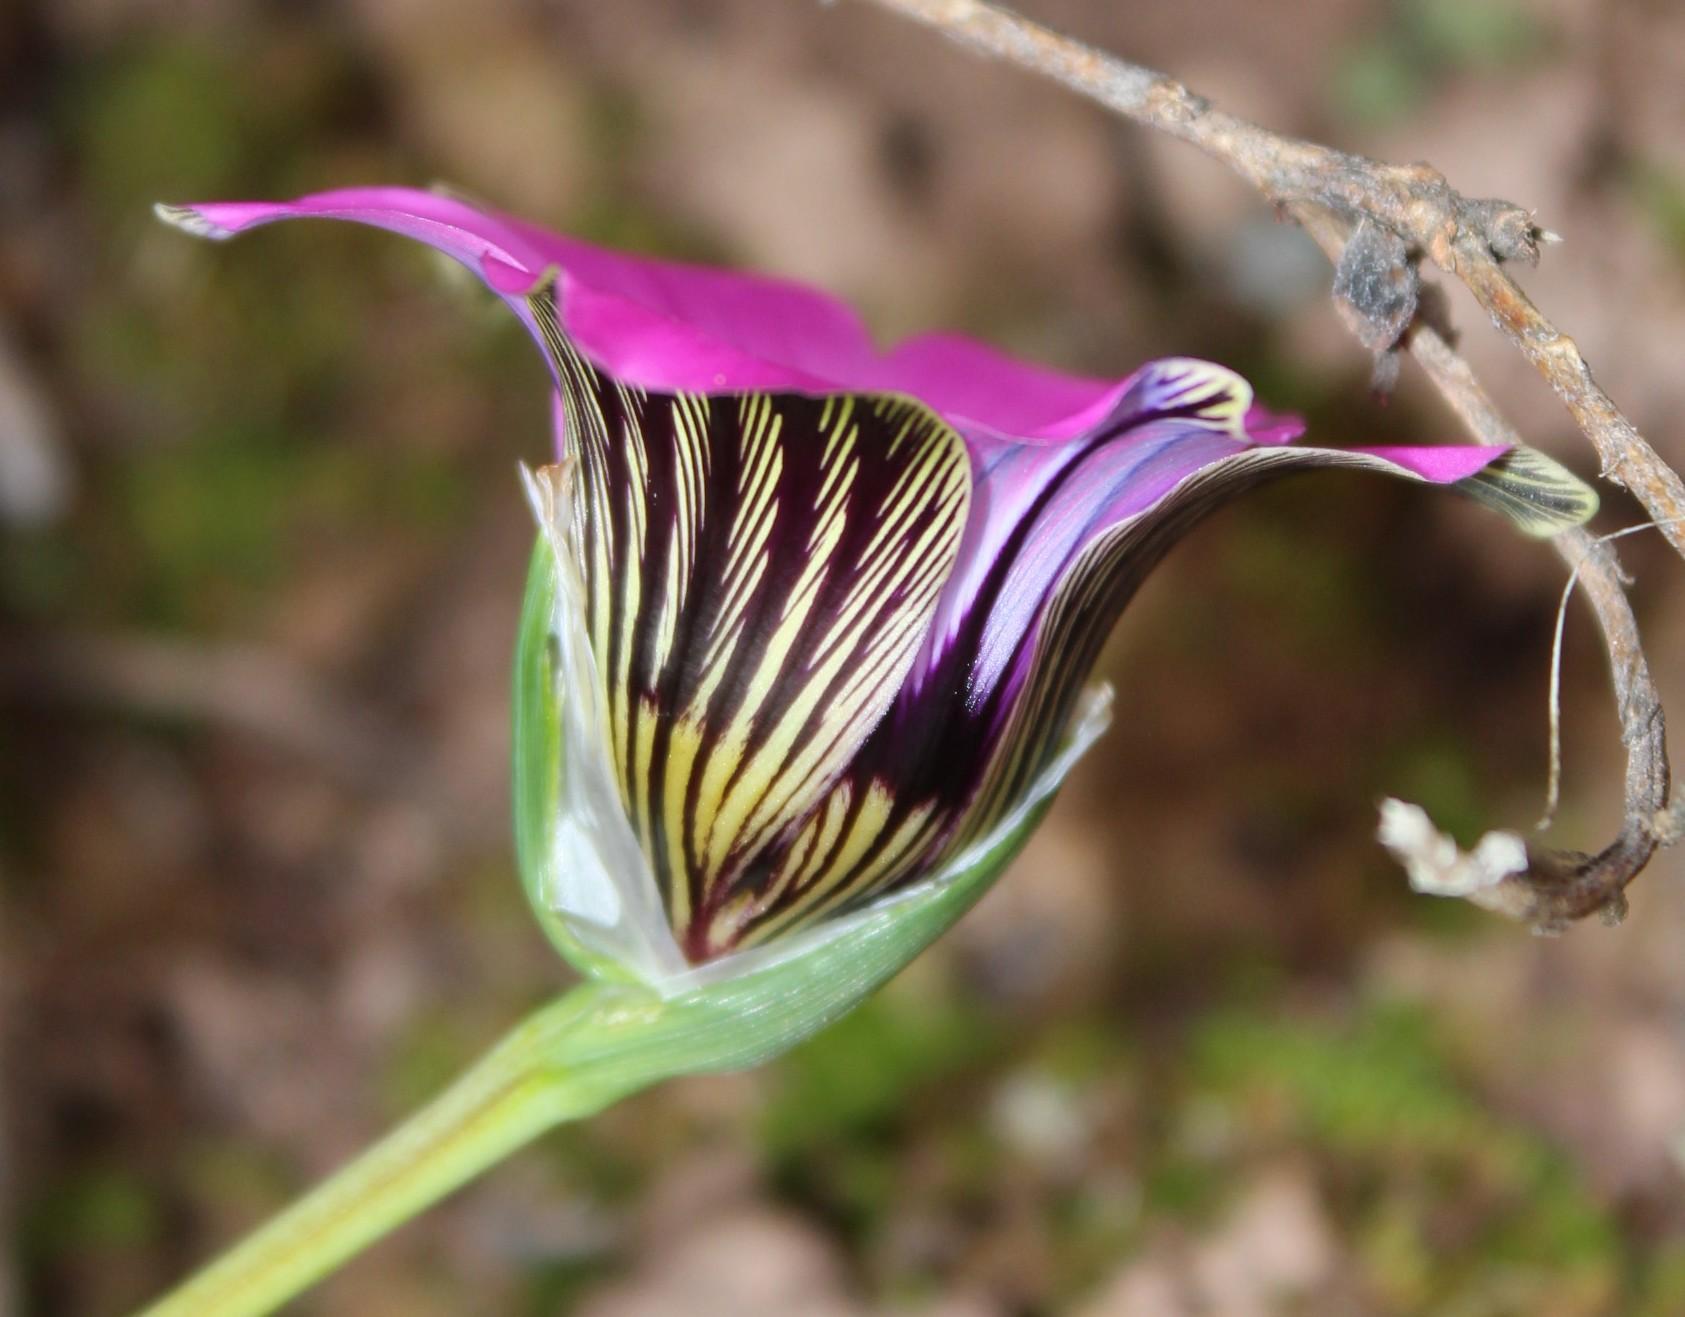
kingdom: Plantae
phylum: Tracheophyta
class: Liliopsida
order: Asparagales
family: Iridaceae
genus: Romulea
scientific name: Romulea atrandra
